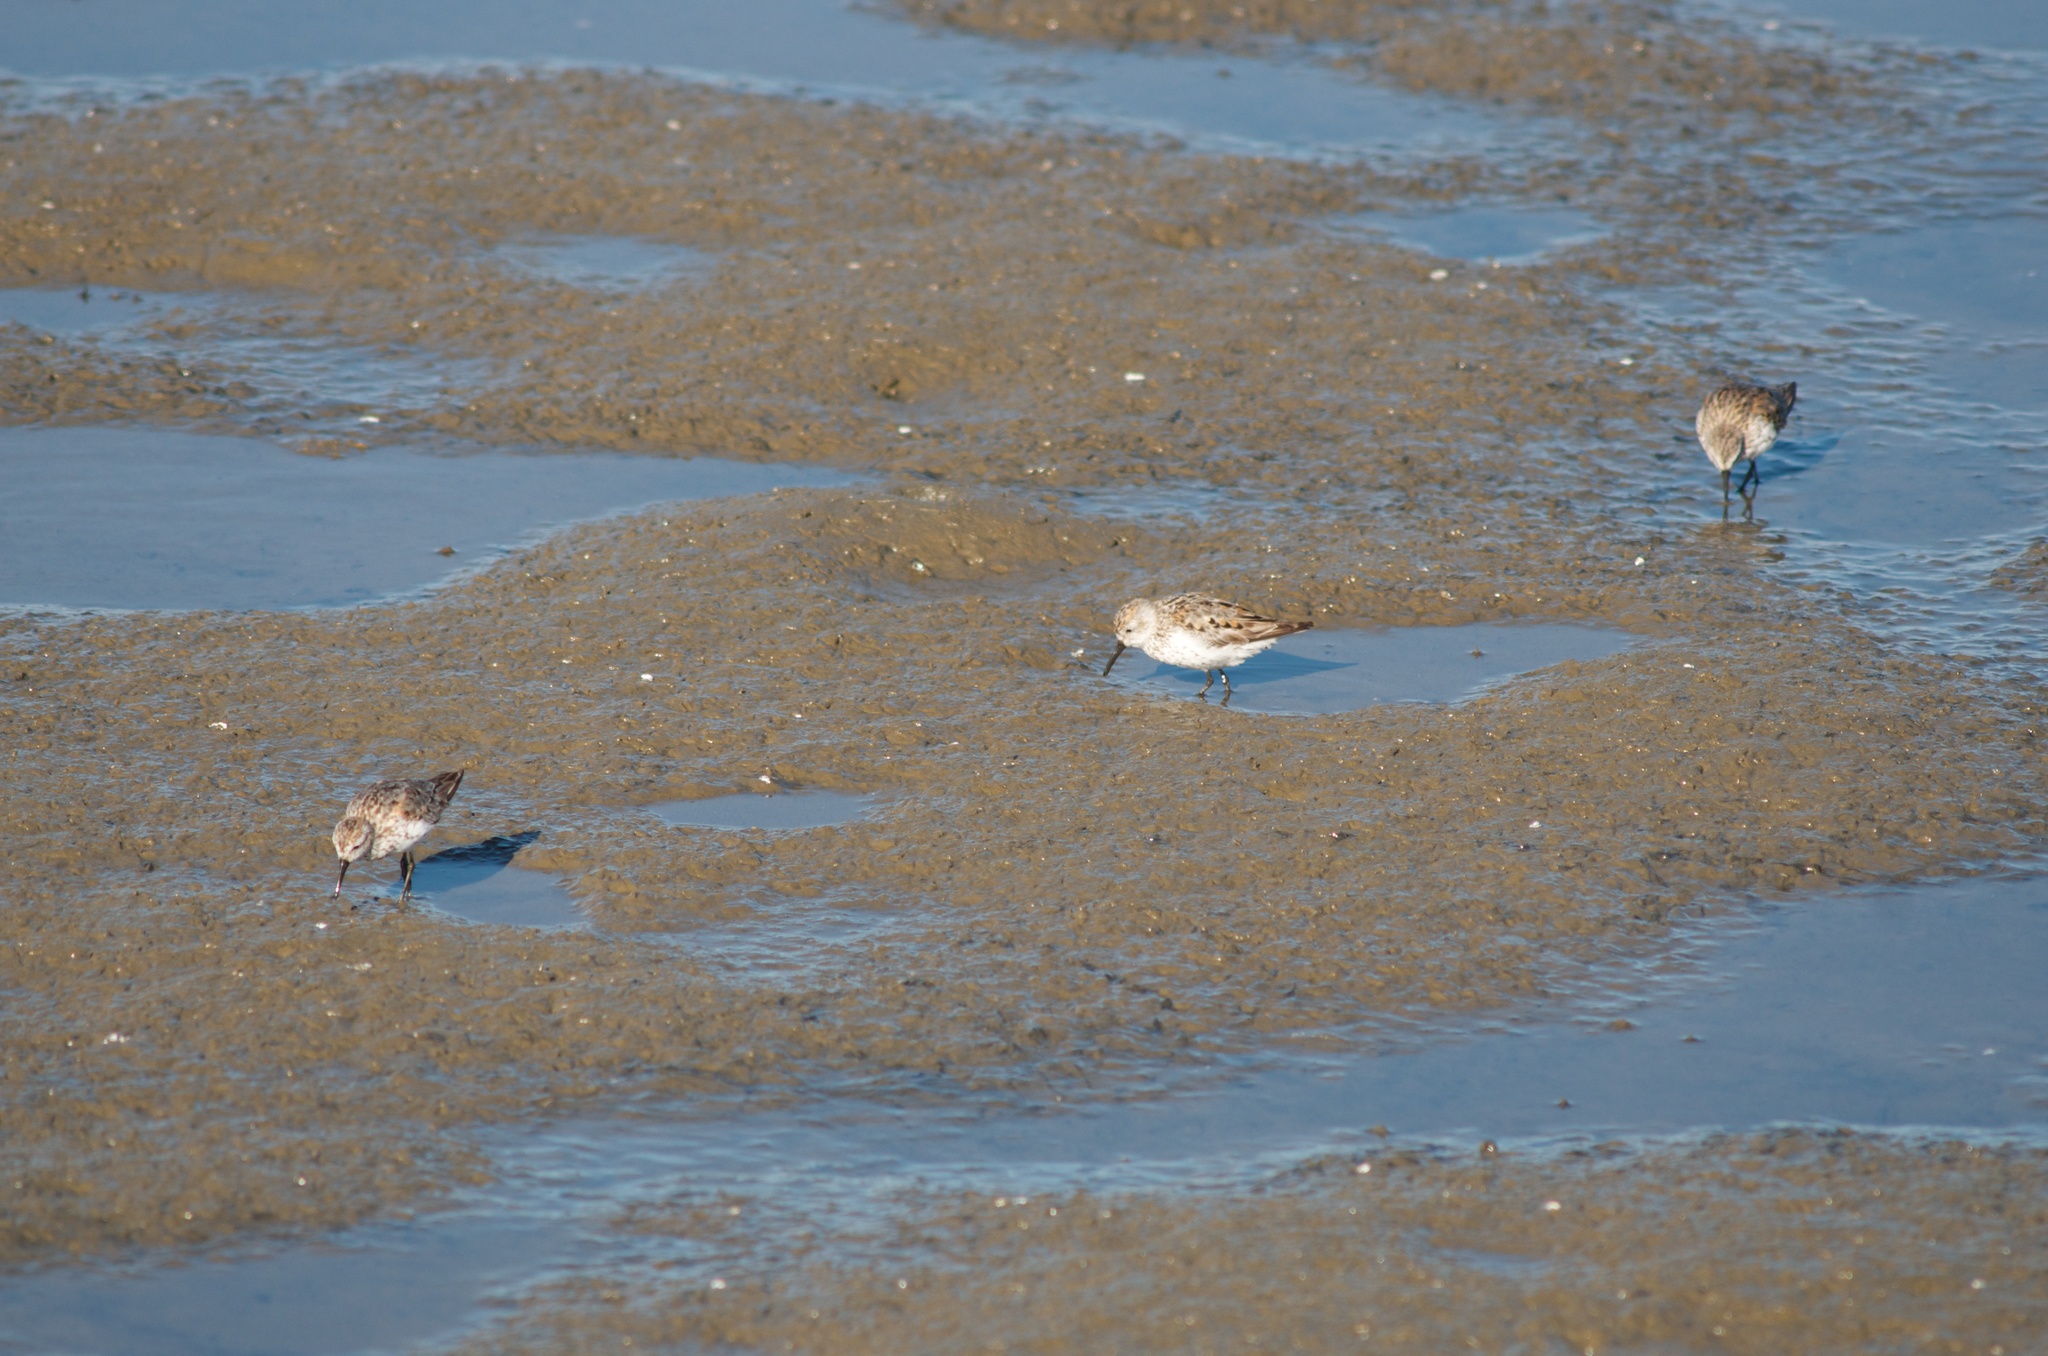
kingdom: Animalia
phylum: Chordata
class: Aves
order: Charadriiformes
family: Scolopacidae
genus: Calidris
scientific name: Calidris mauri
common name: Western sandpiper
